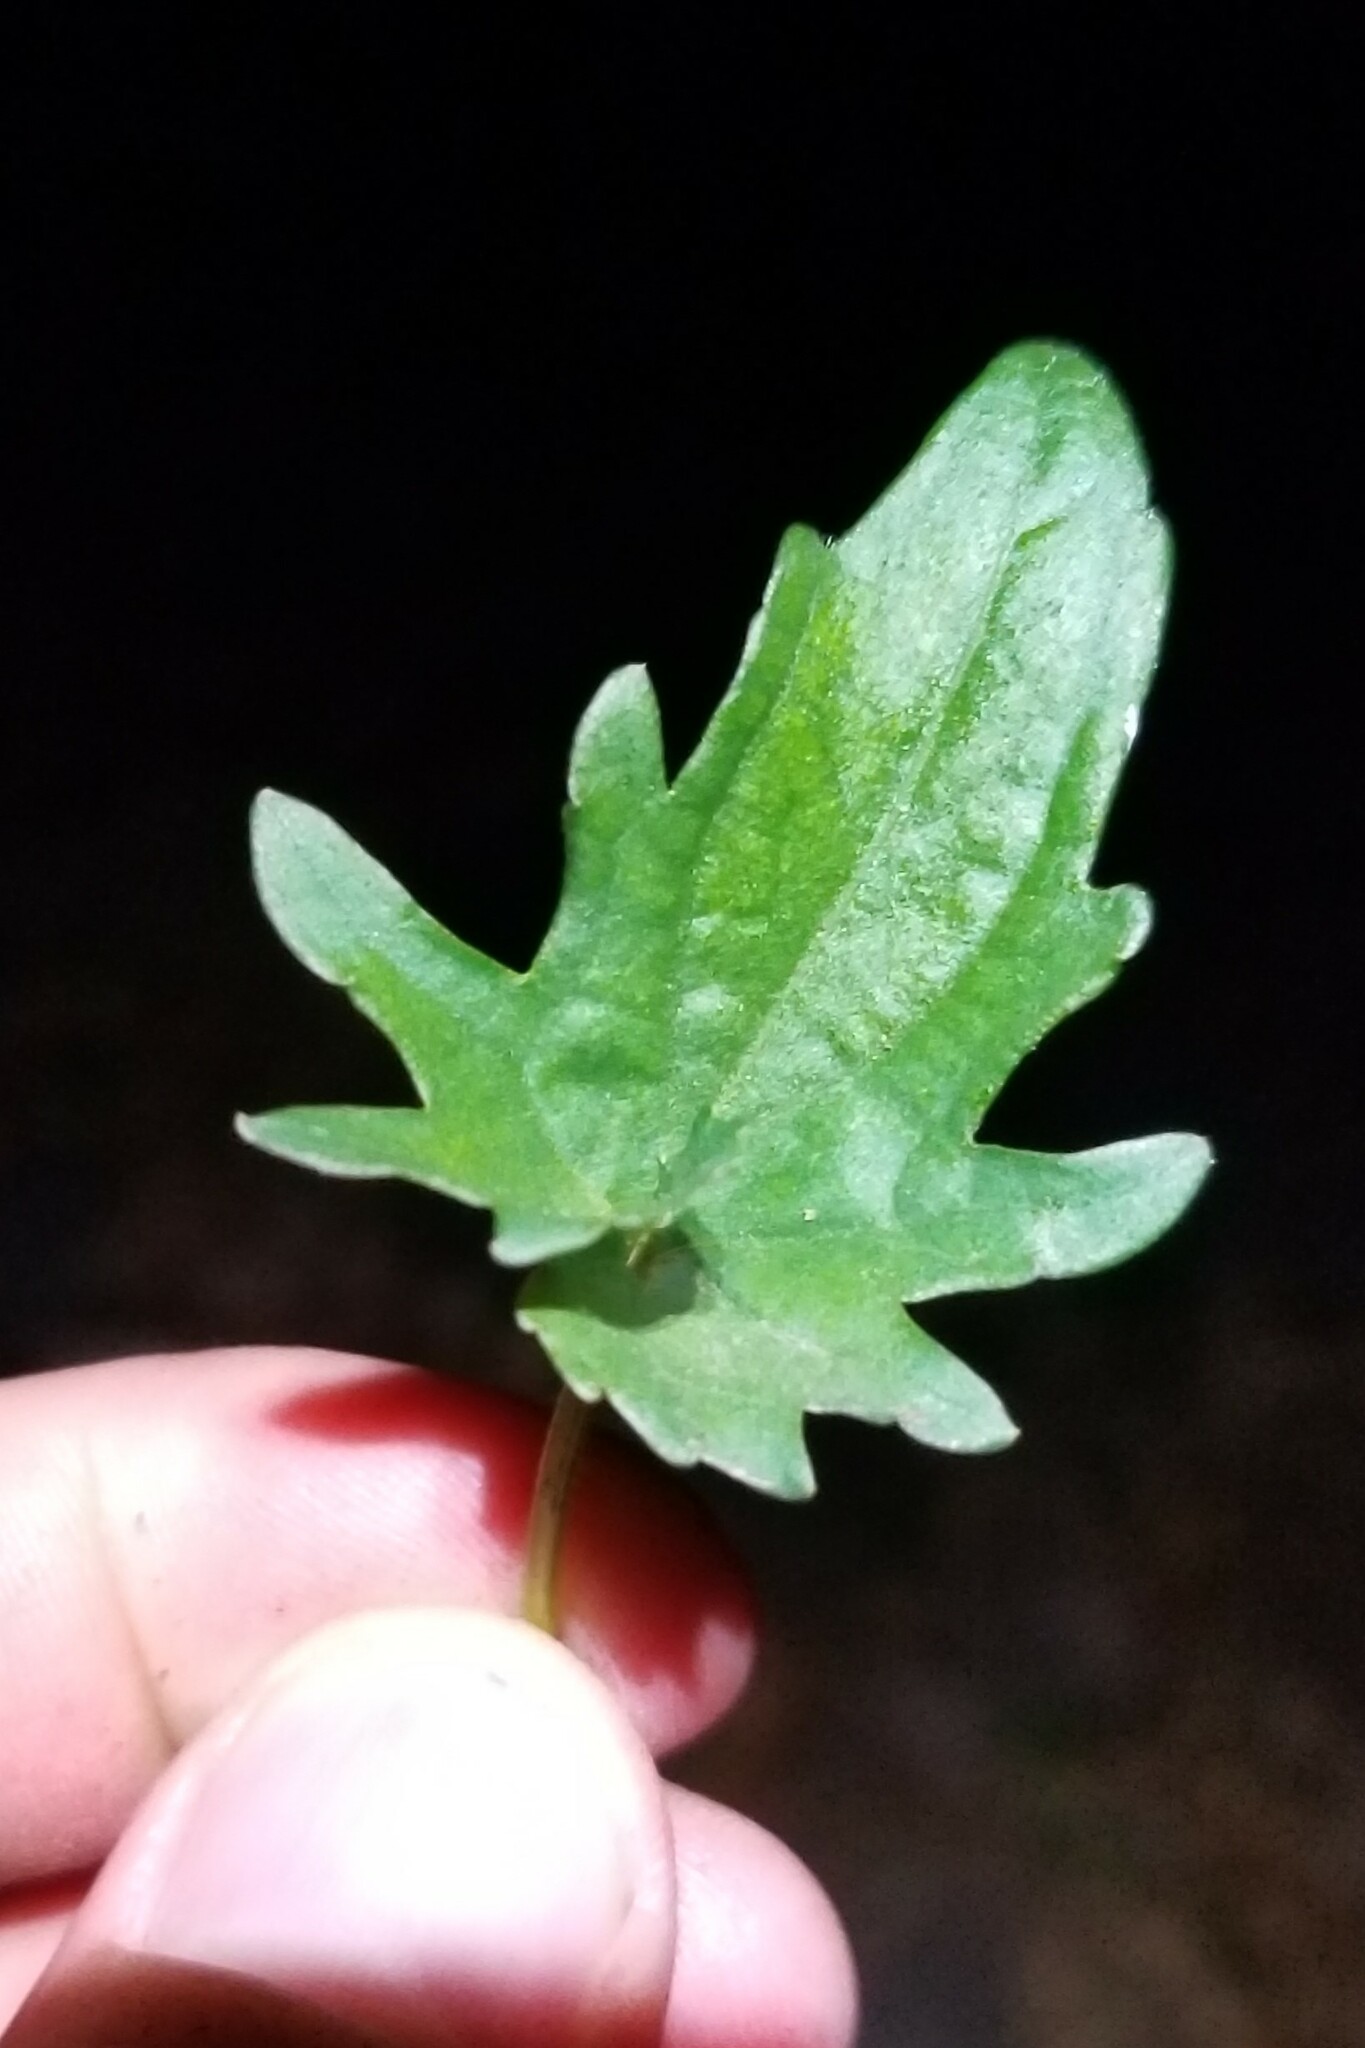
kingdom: Plantae
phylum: Tracheophyta
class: Magnoliopsida
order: Malpighiales
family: Violaceae
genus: Viola
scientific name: Viola subsinuata
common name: Wood violet
